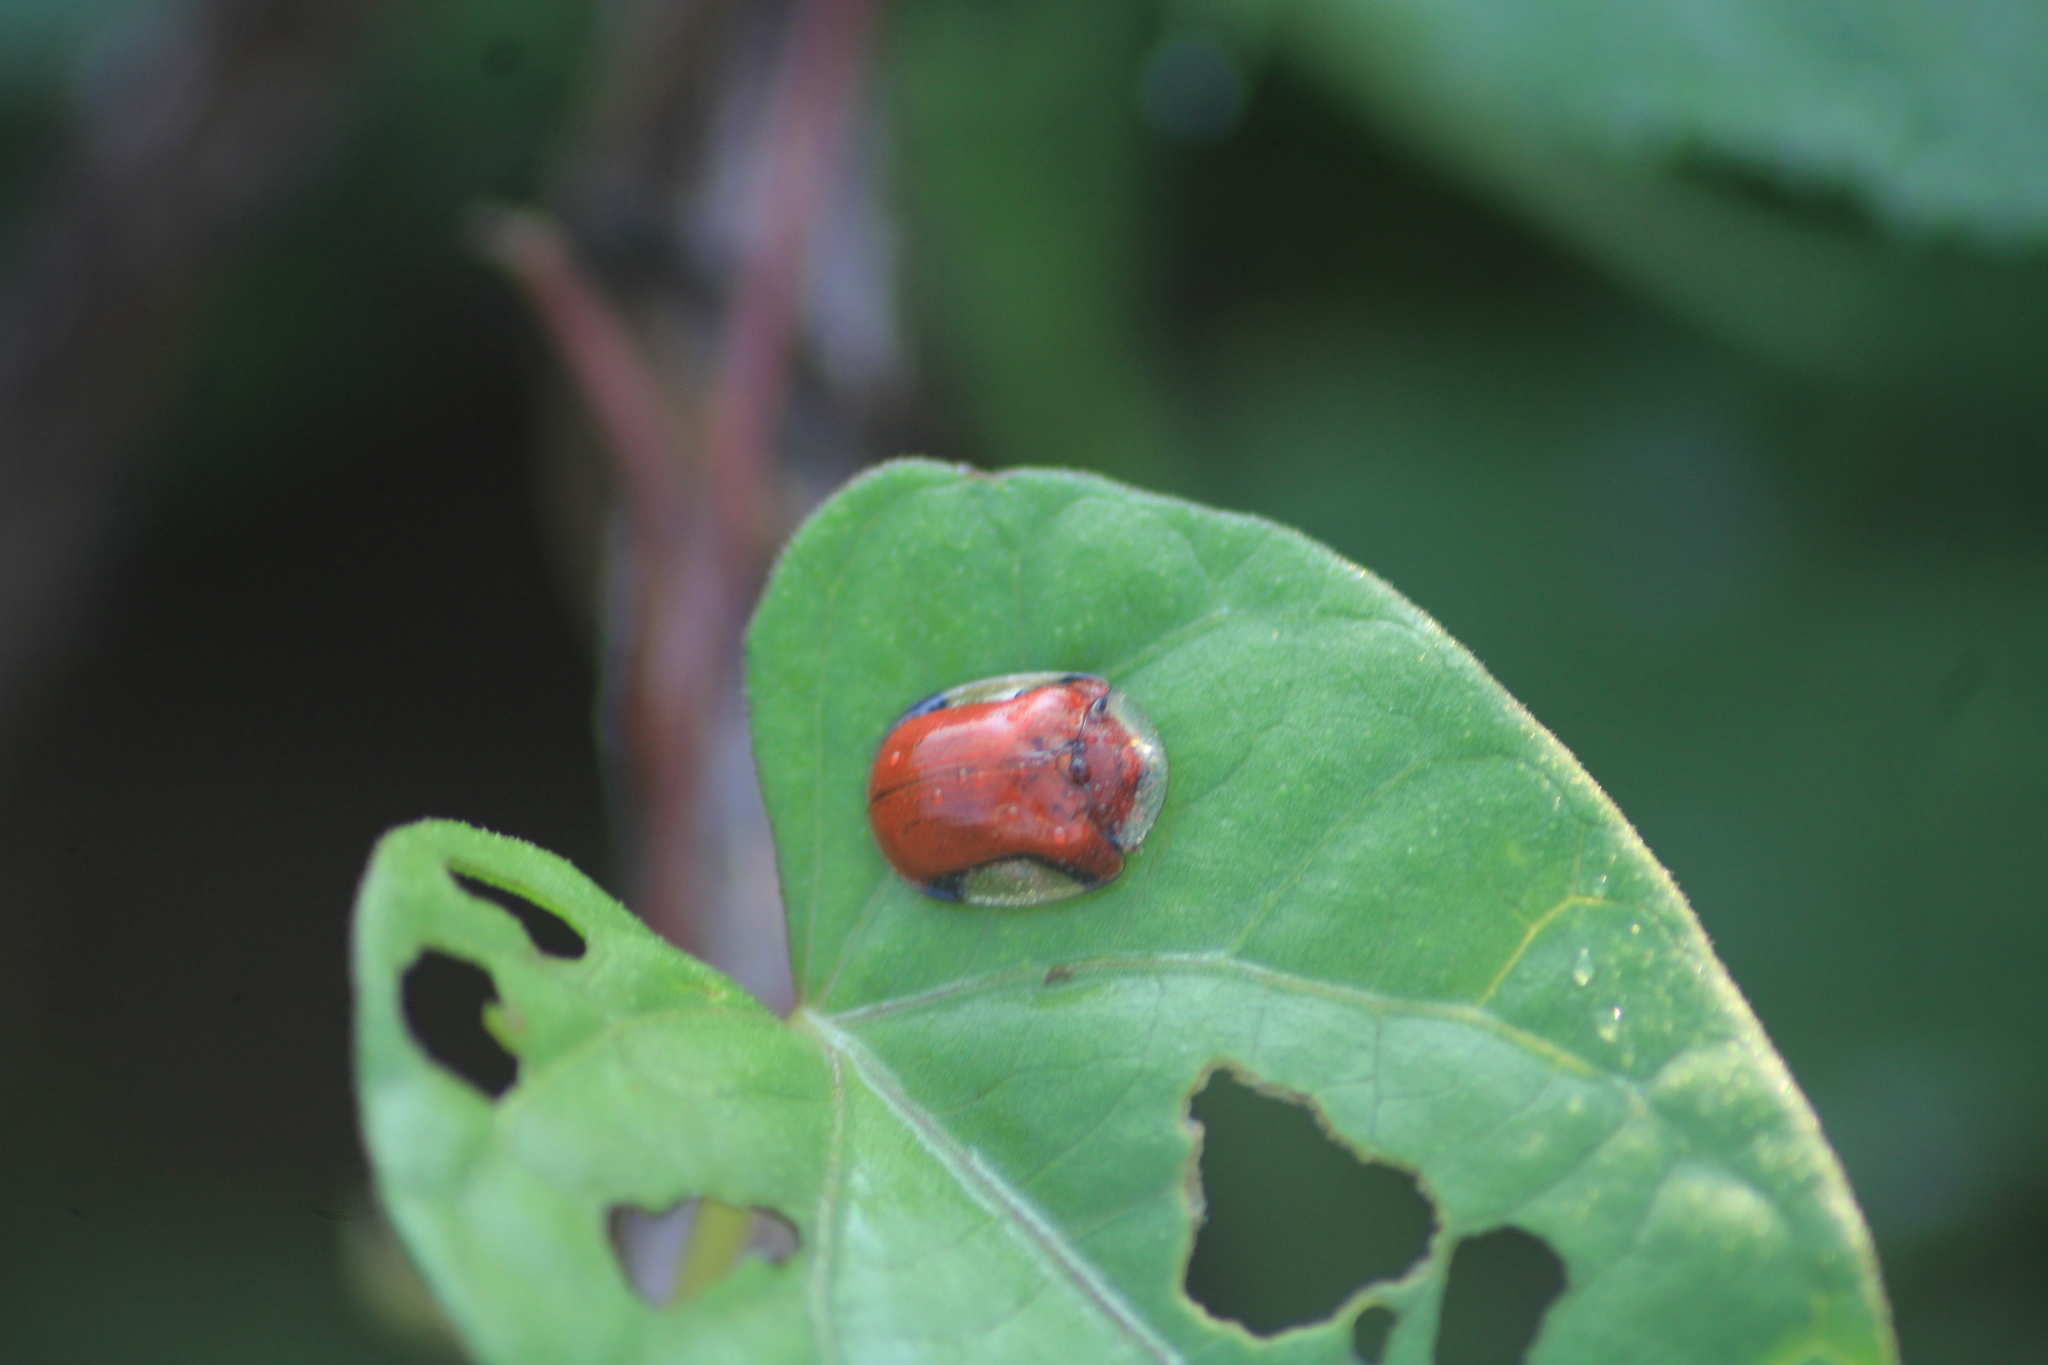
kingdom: Animalia
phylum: Arthropoda
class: Insecta
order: Coleoptera
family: Chrysomelidae
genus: Charidotella
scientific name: Charidotella emarginata
